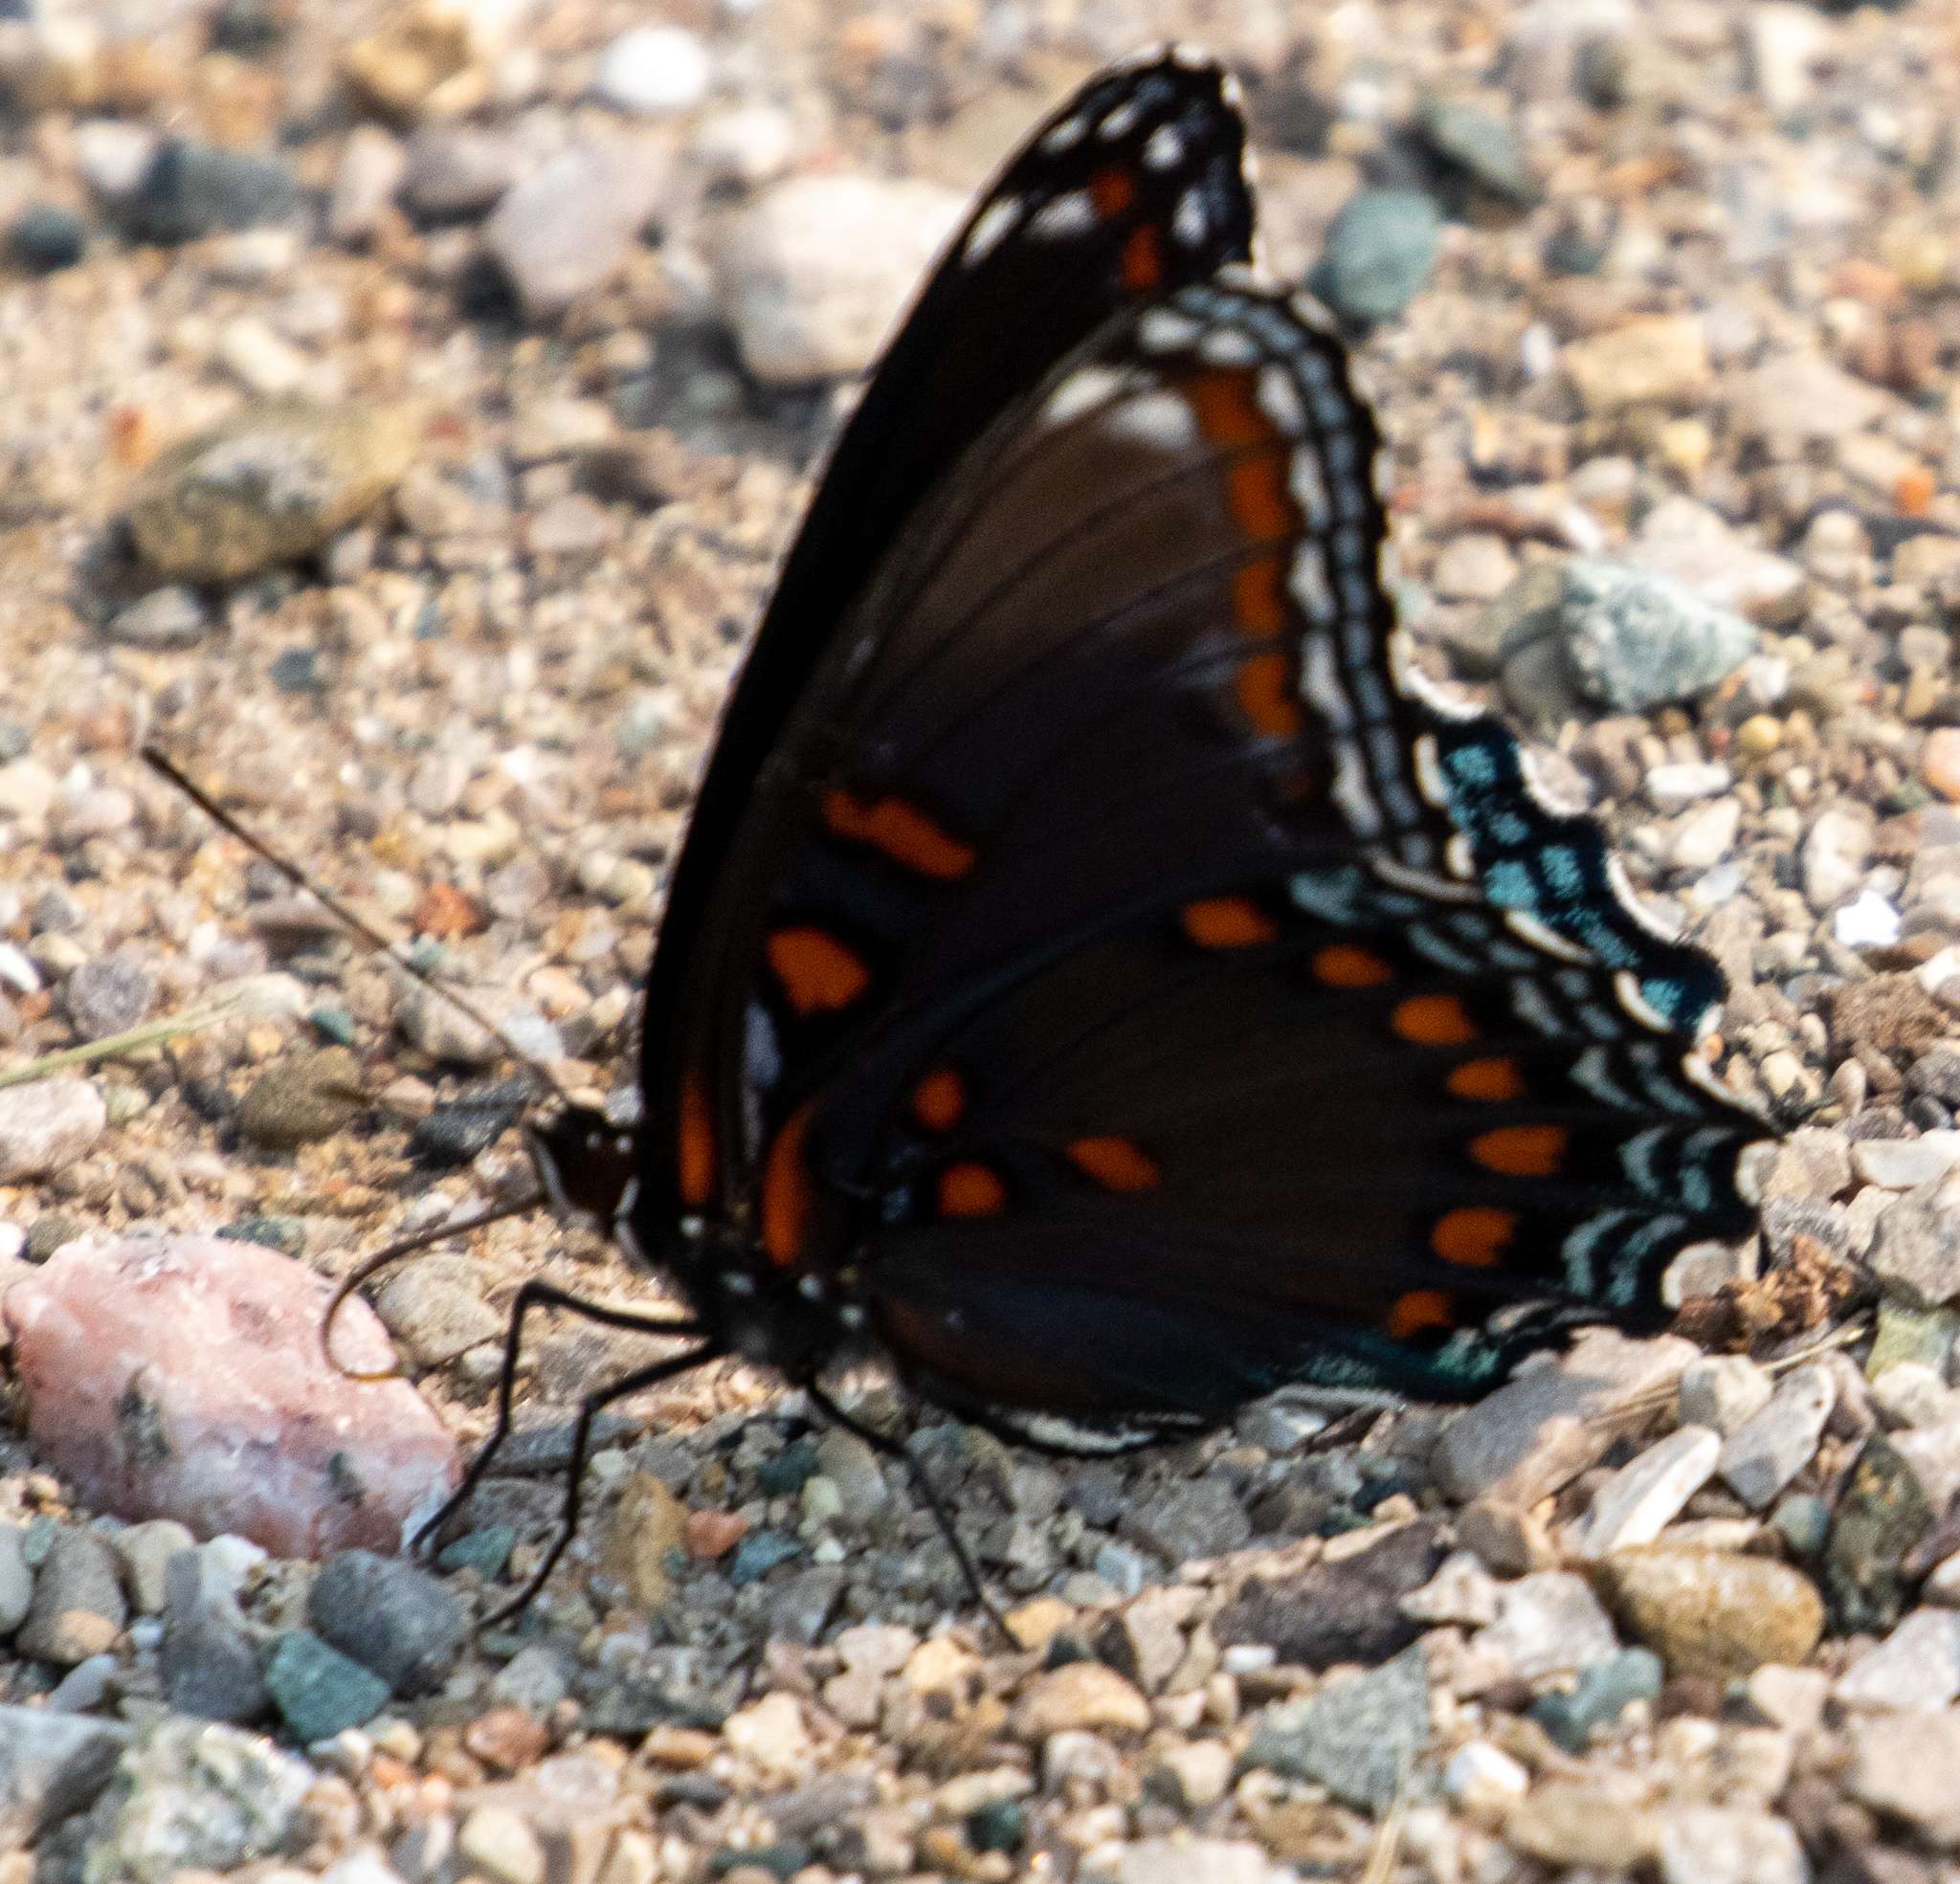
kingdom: Animalia
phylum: Arthropoda
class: Insecta
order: Lepidoptera
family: Nymphalidae
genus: Limenitis
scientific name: Limenitis astyanax
